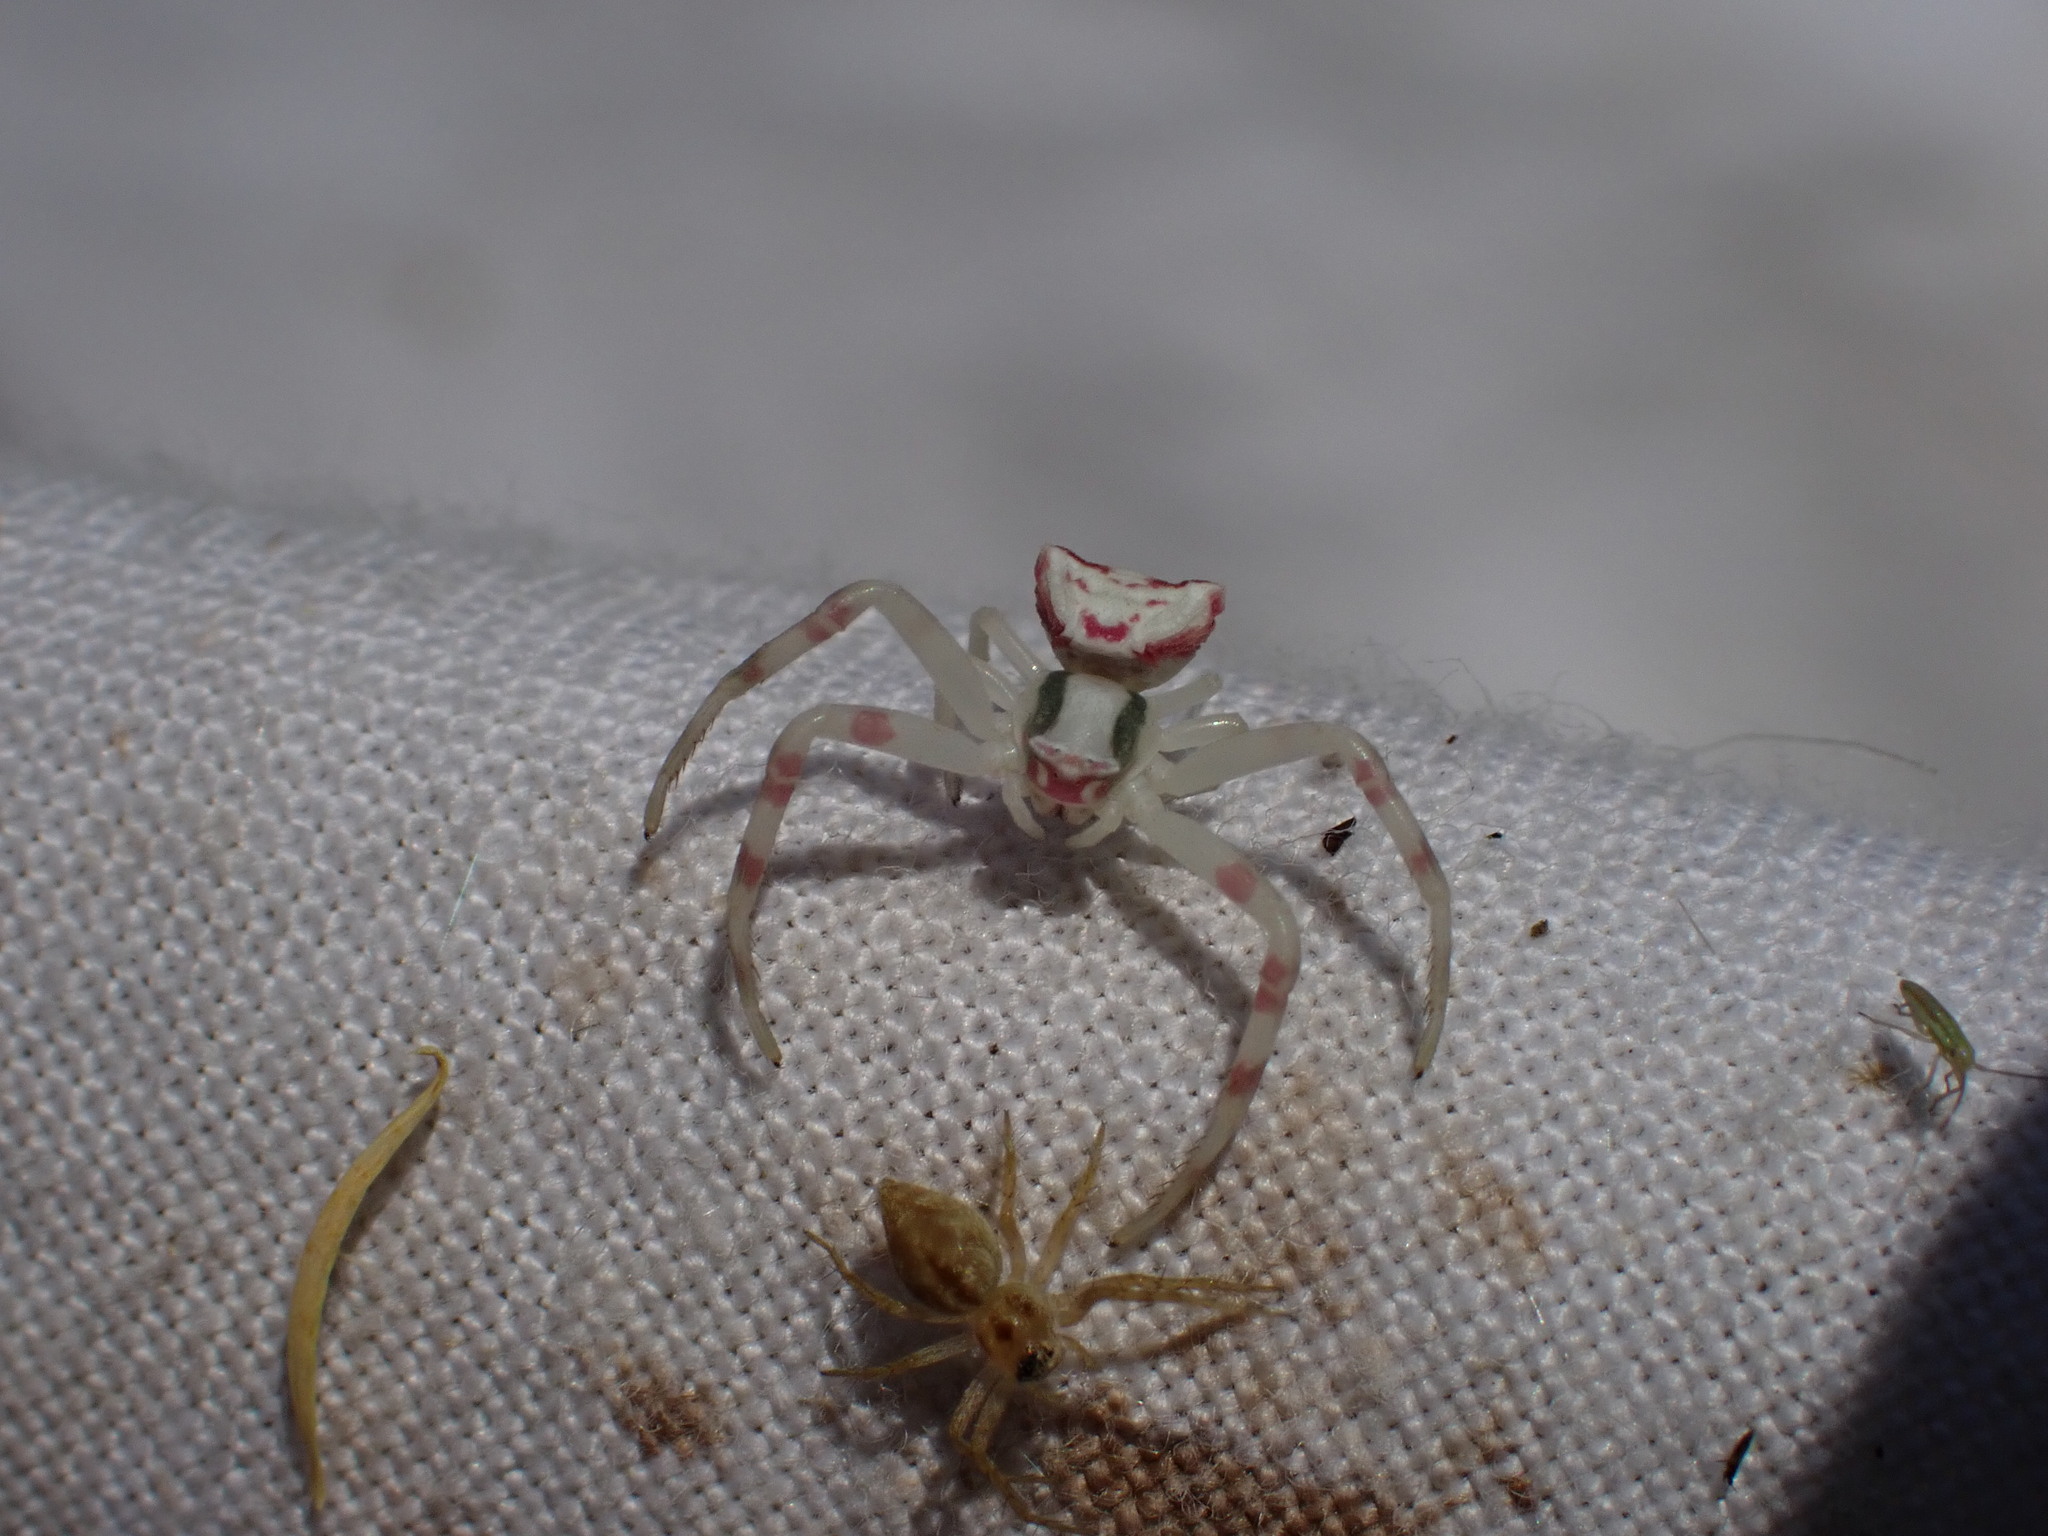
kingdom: Animalia
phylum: Arthropoda
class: Arachnida
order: Araneae
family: Thomisidae
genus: Thomisus
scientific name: Thomisus onustus
